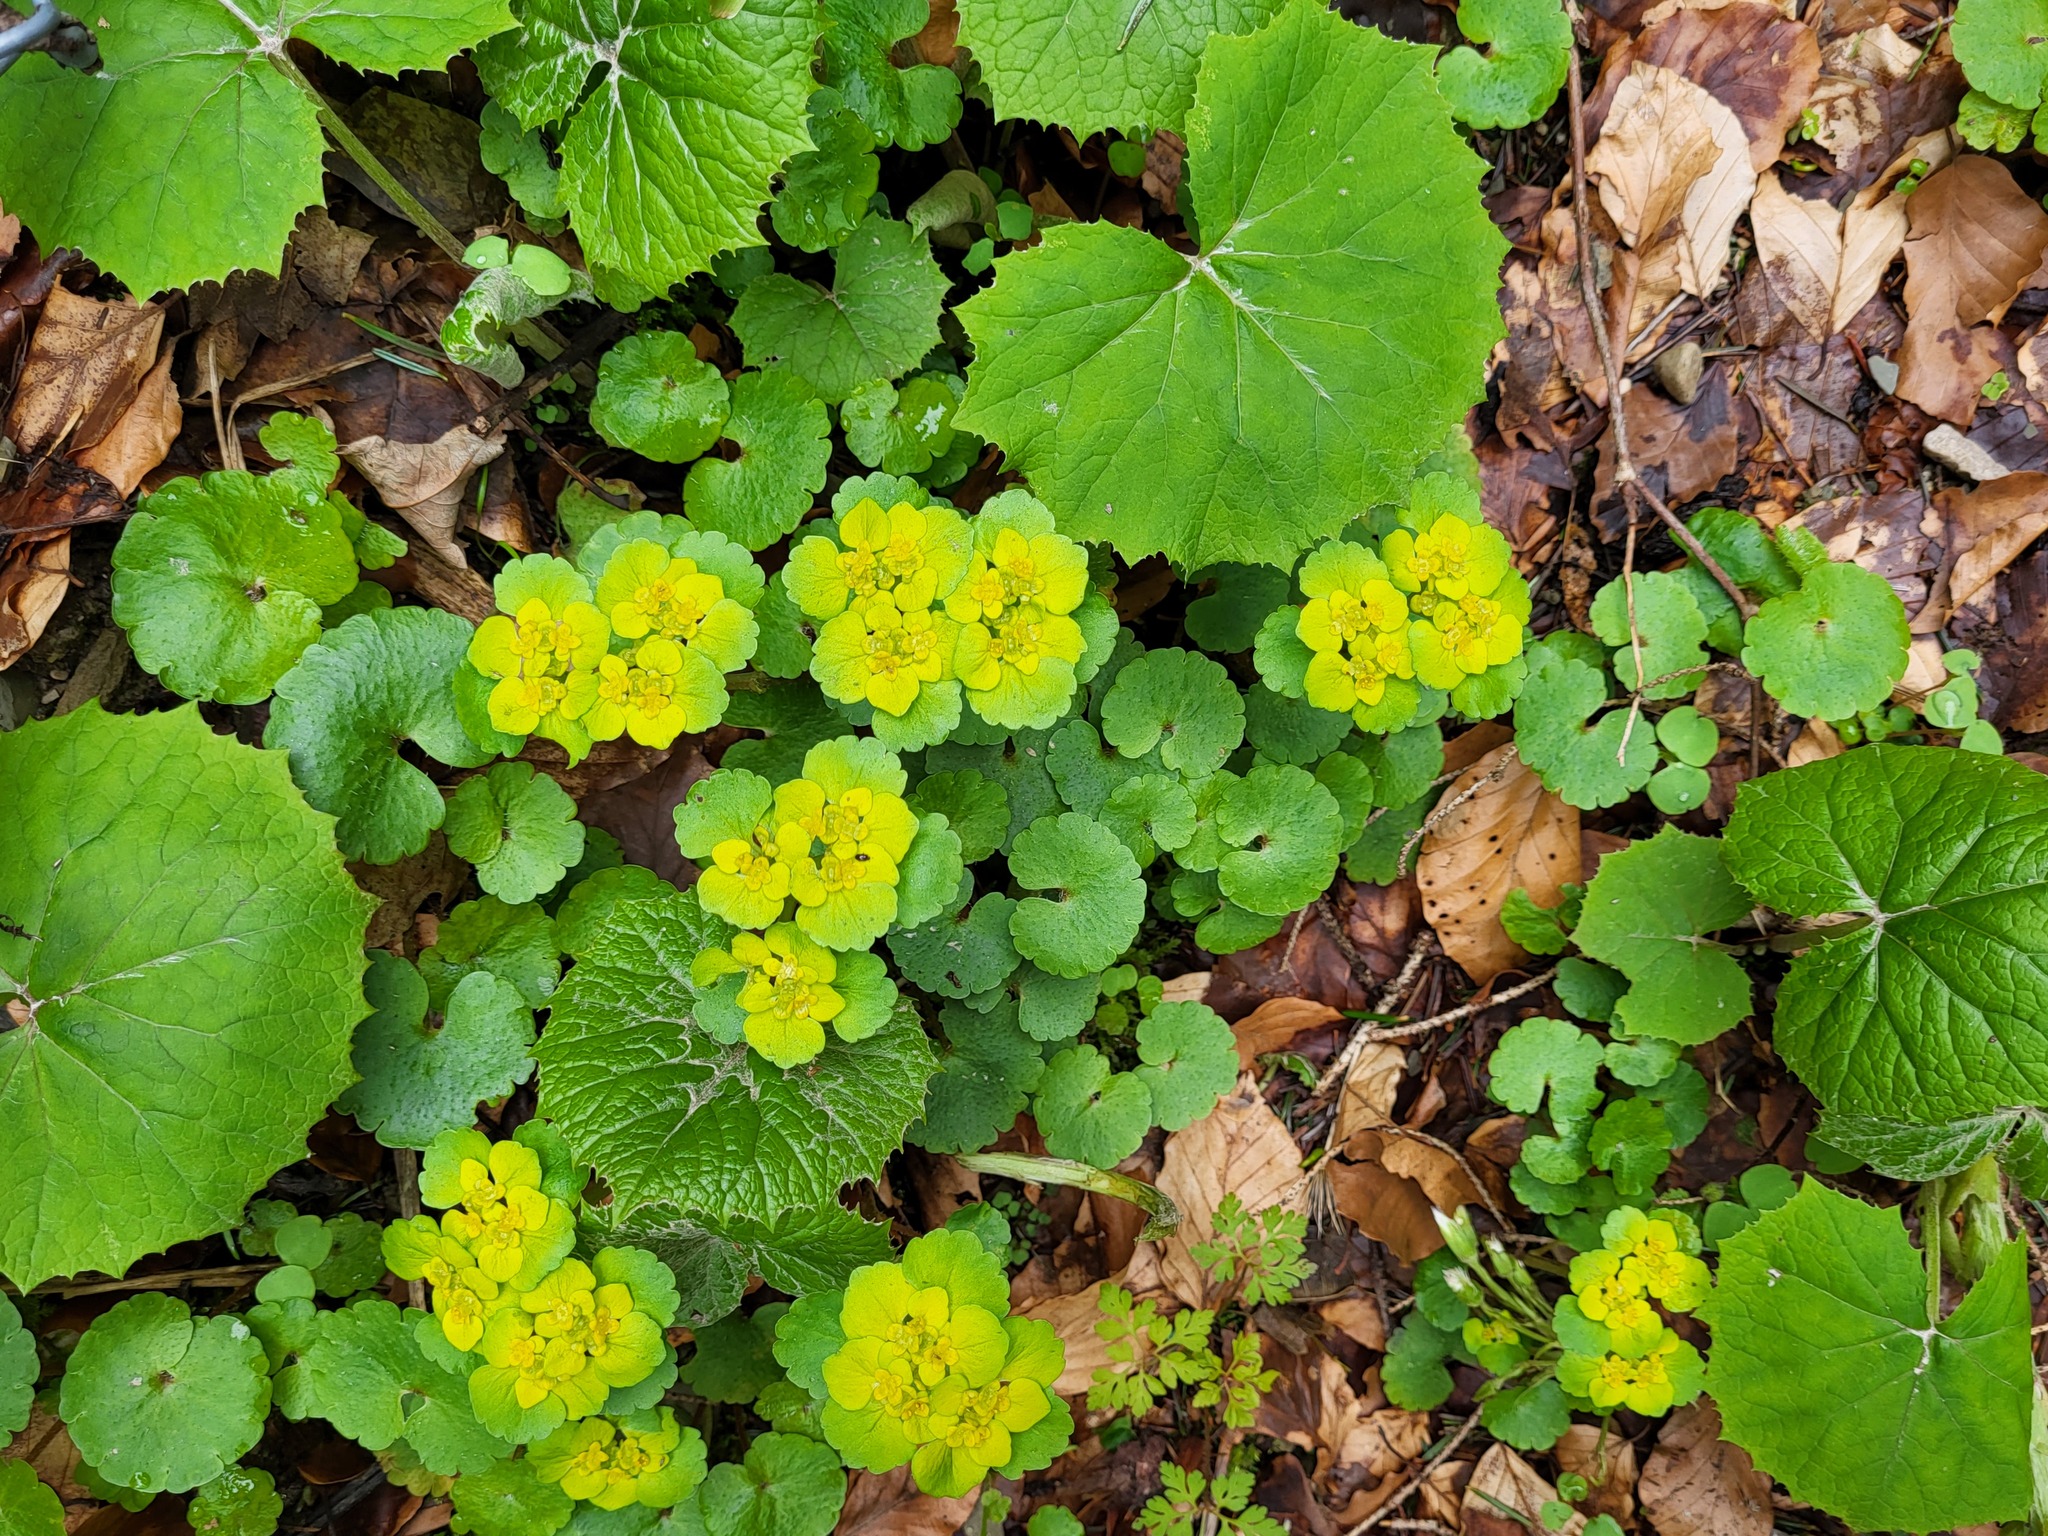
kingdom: Plantae
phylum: Tracheophyta
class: Magnoliopsida
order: Saxifragales
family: Saxifragaceae
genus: Chrysosplenium
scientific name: Chrysosplenium alternifolium
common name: Alternate-leaved golden-saxifrage
